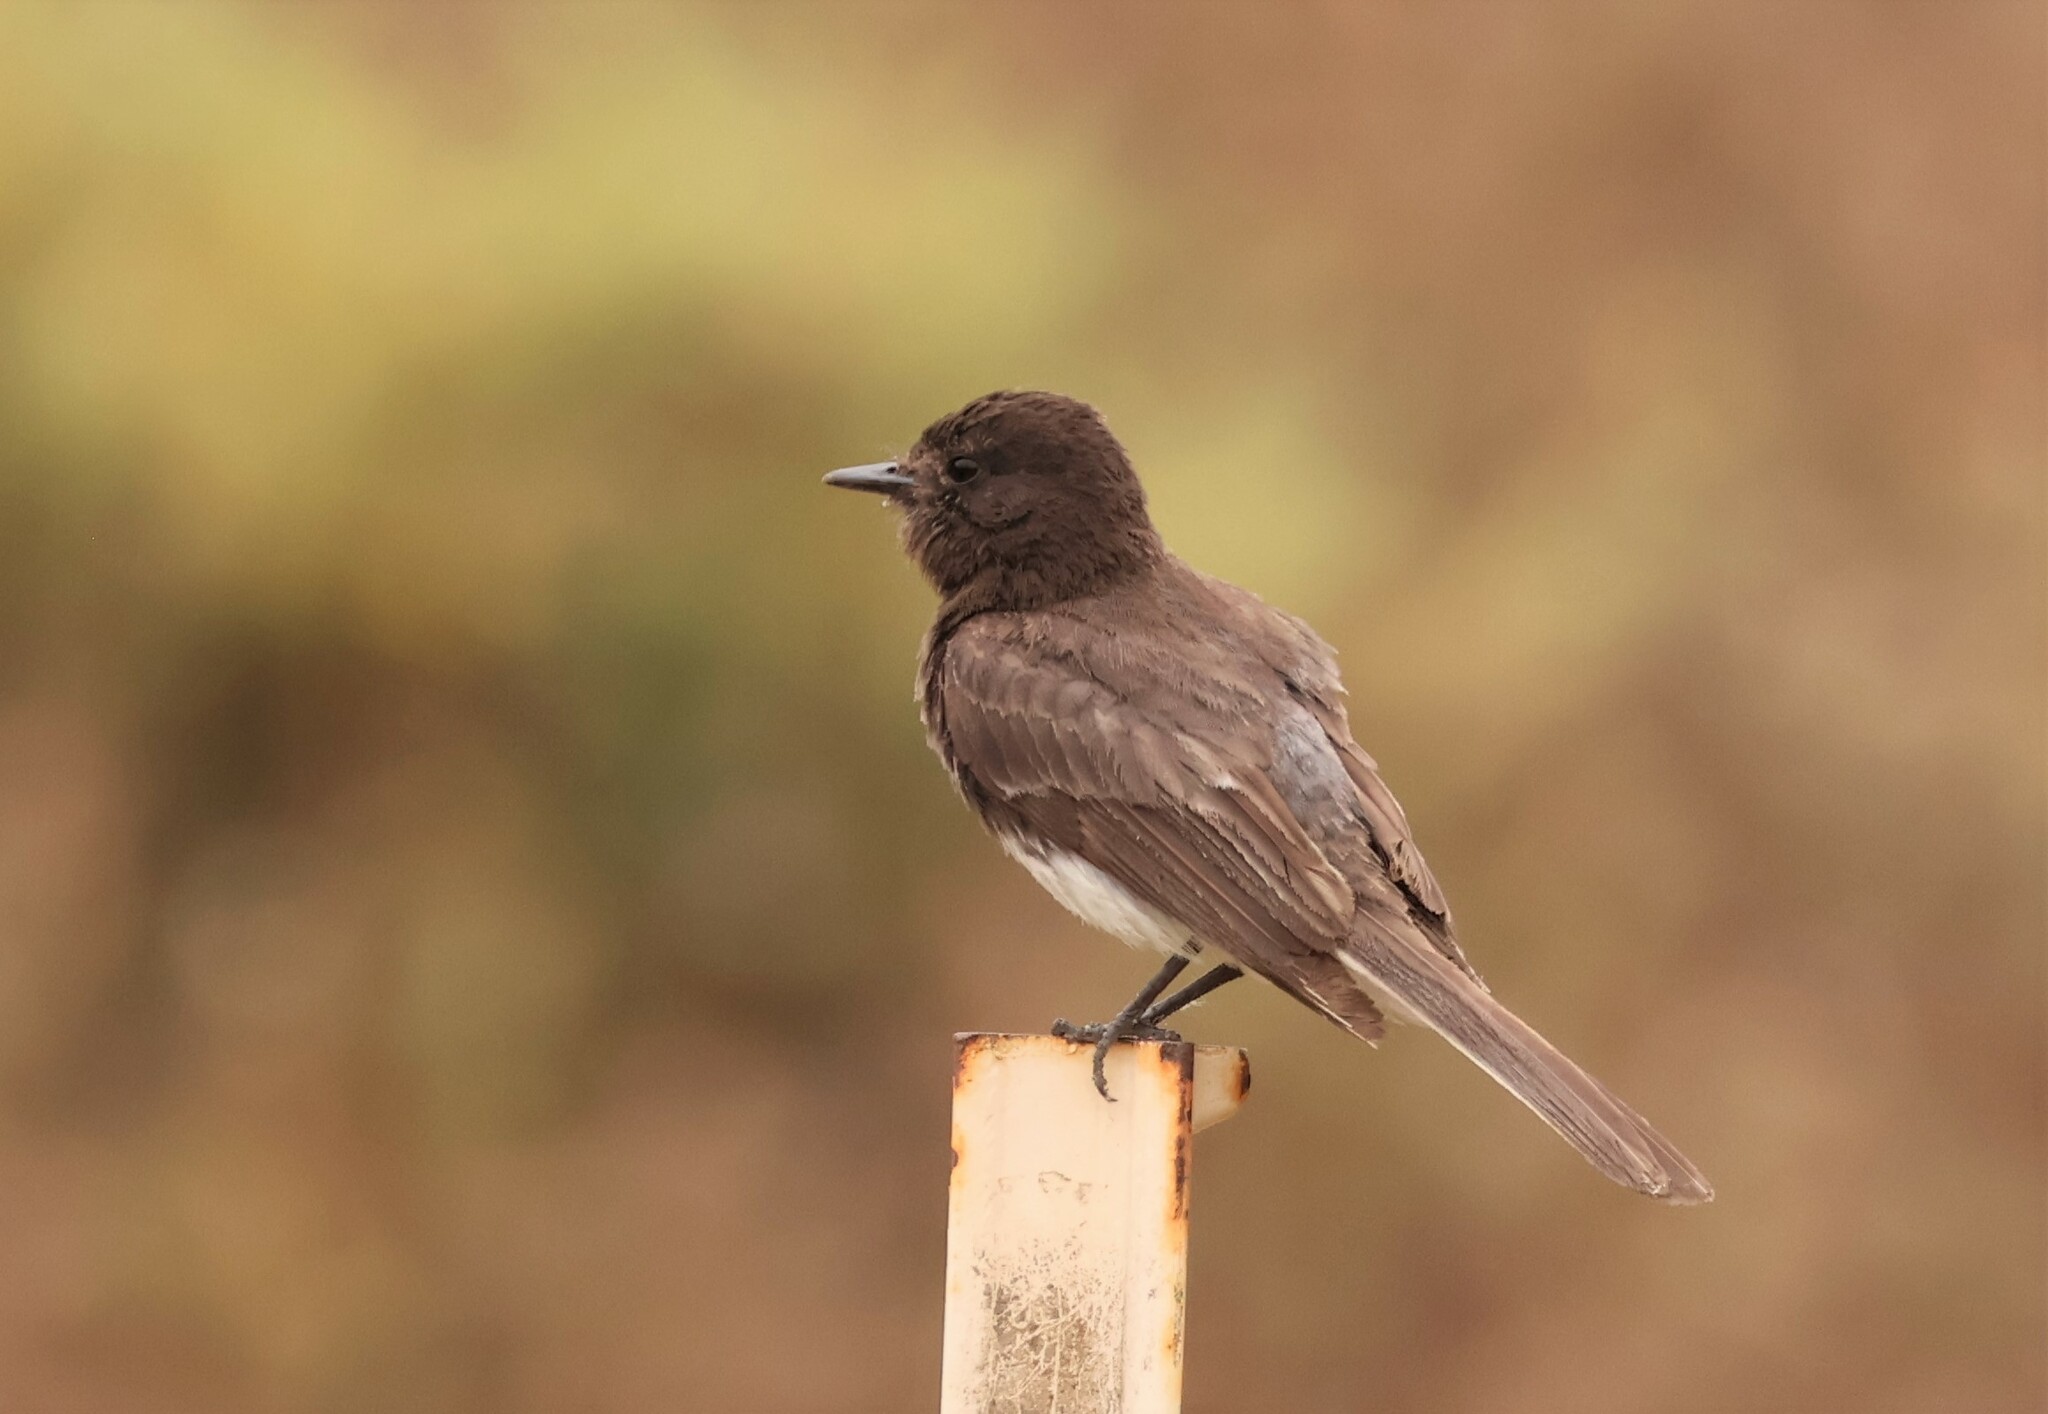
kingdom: Animalia
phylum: Chordata
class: Aves
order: Passeriformes
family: Tyrannidae
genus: Sayornis
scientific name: Sayornis nigricans
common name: Black phoebe
